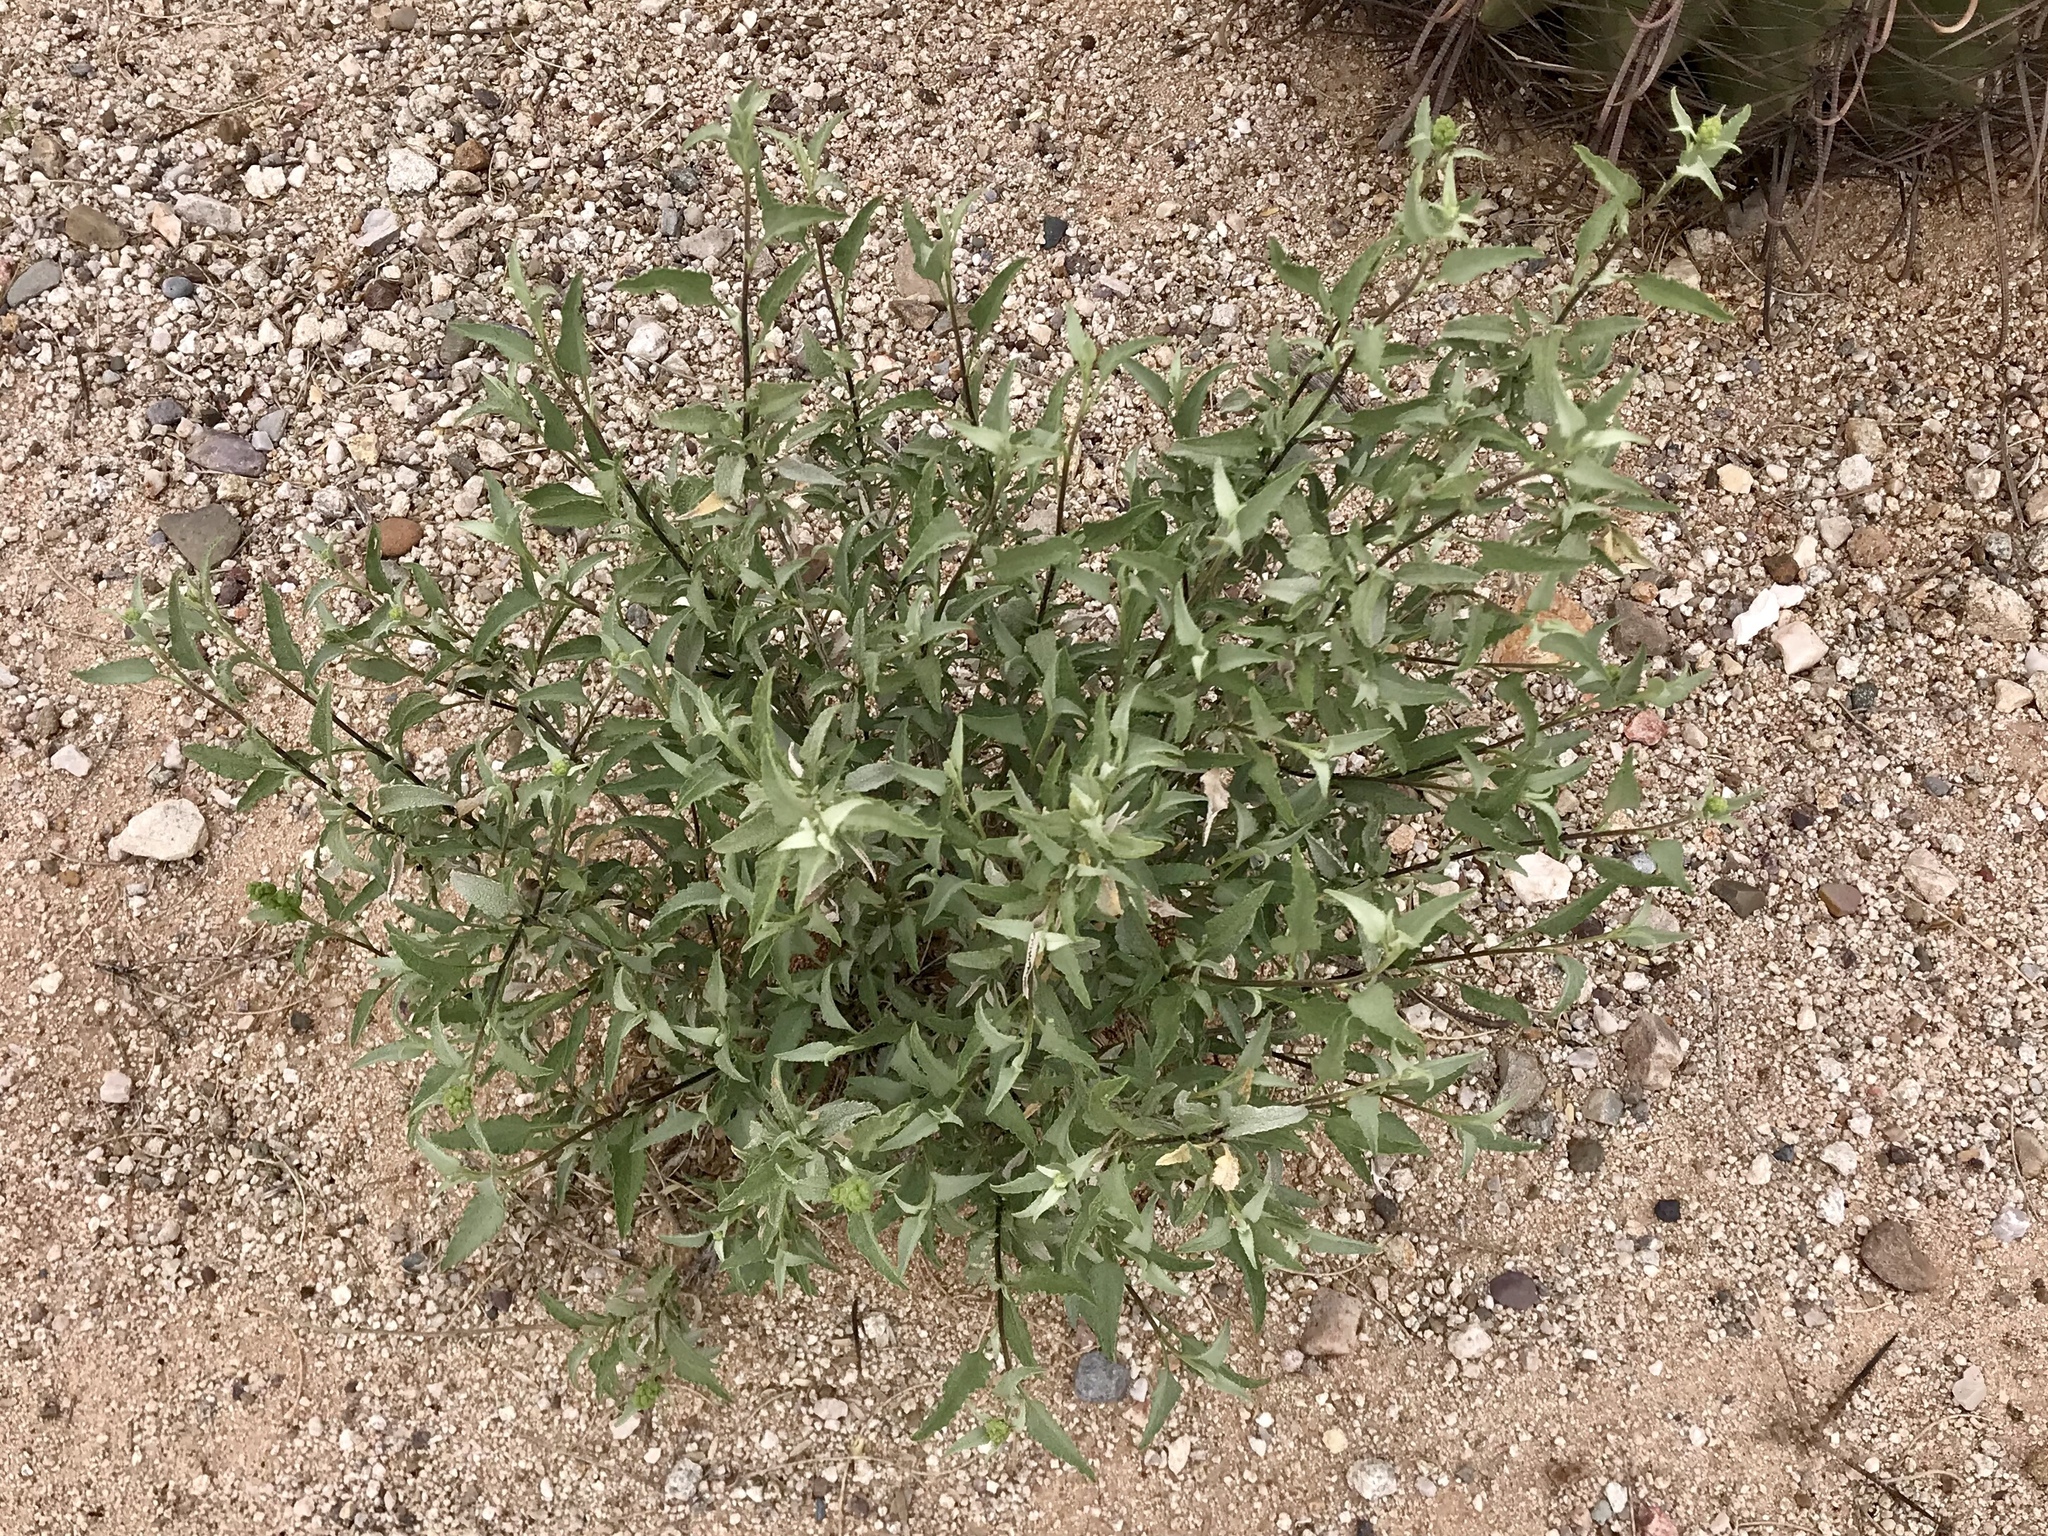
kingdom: Plantae
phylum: Tracheophyta
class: Magnoliopsida
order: Asterales
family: Asteraceae
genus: Ambrosia
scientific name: Ambrosia deltoidea
